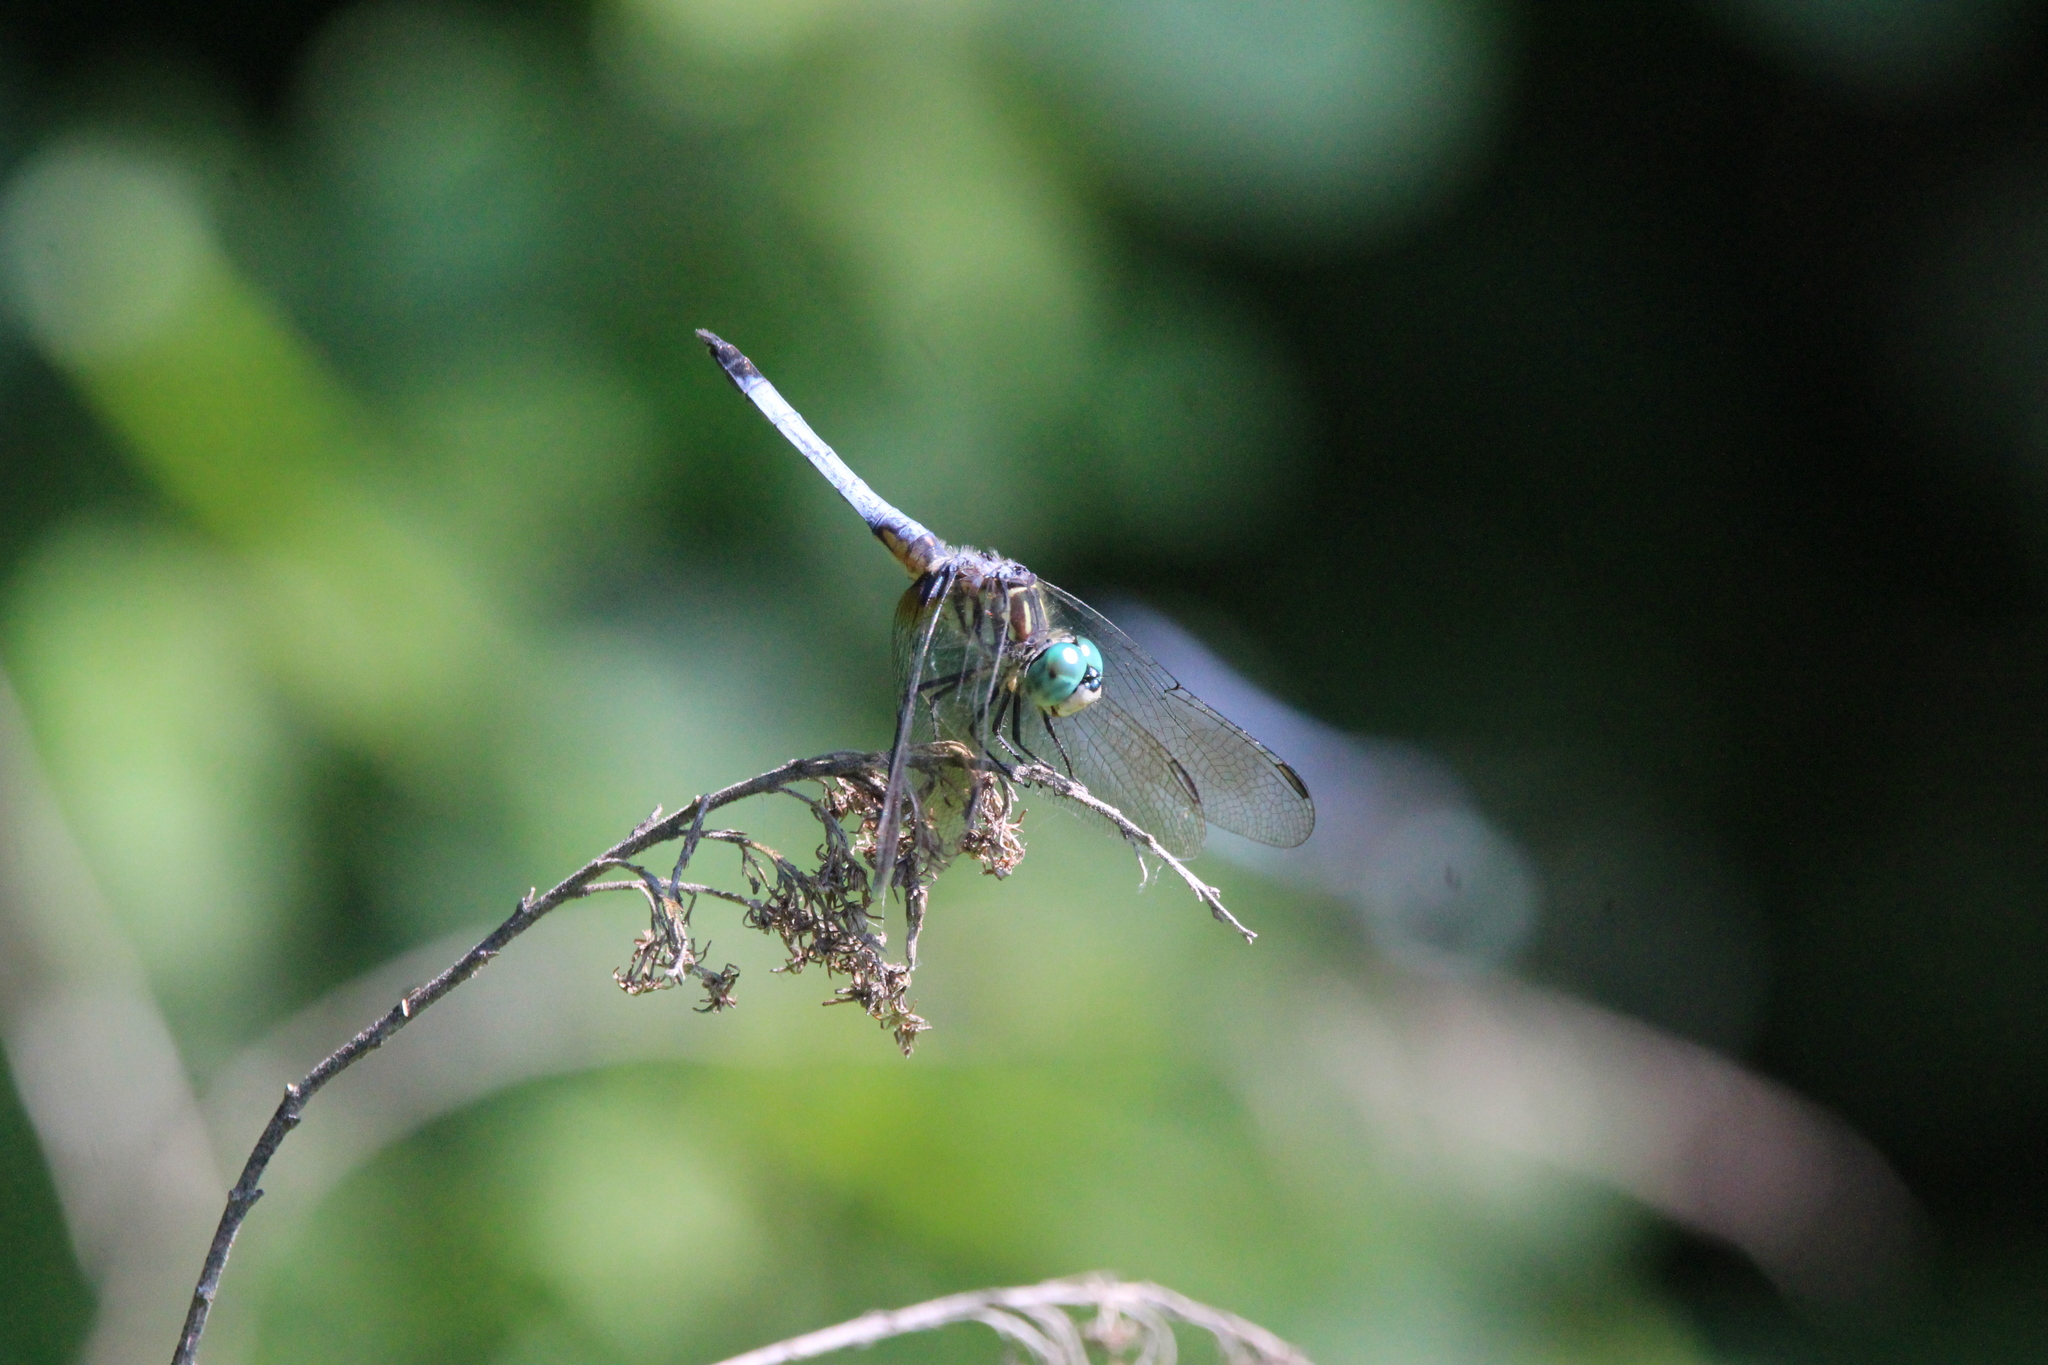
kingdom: Animalia
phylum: Arthropoda
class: Insecta
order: Odonata
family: Libellulidae
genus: Pachydiplax
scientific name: Pachydiplax longipennis
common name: Blue dasher
